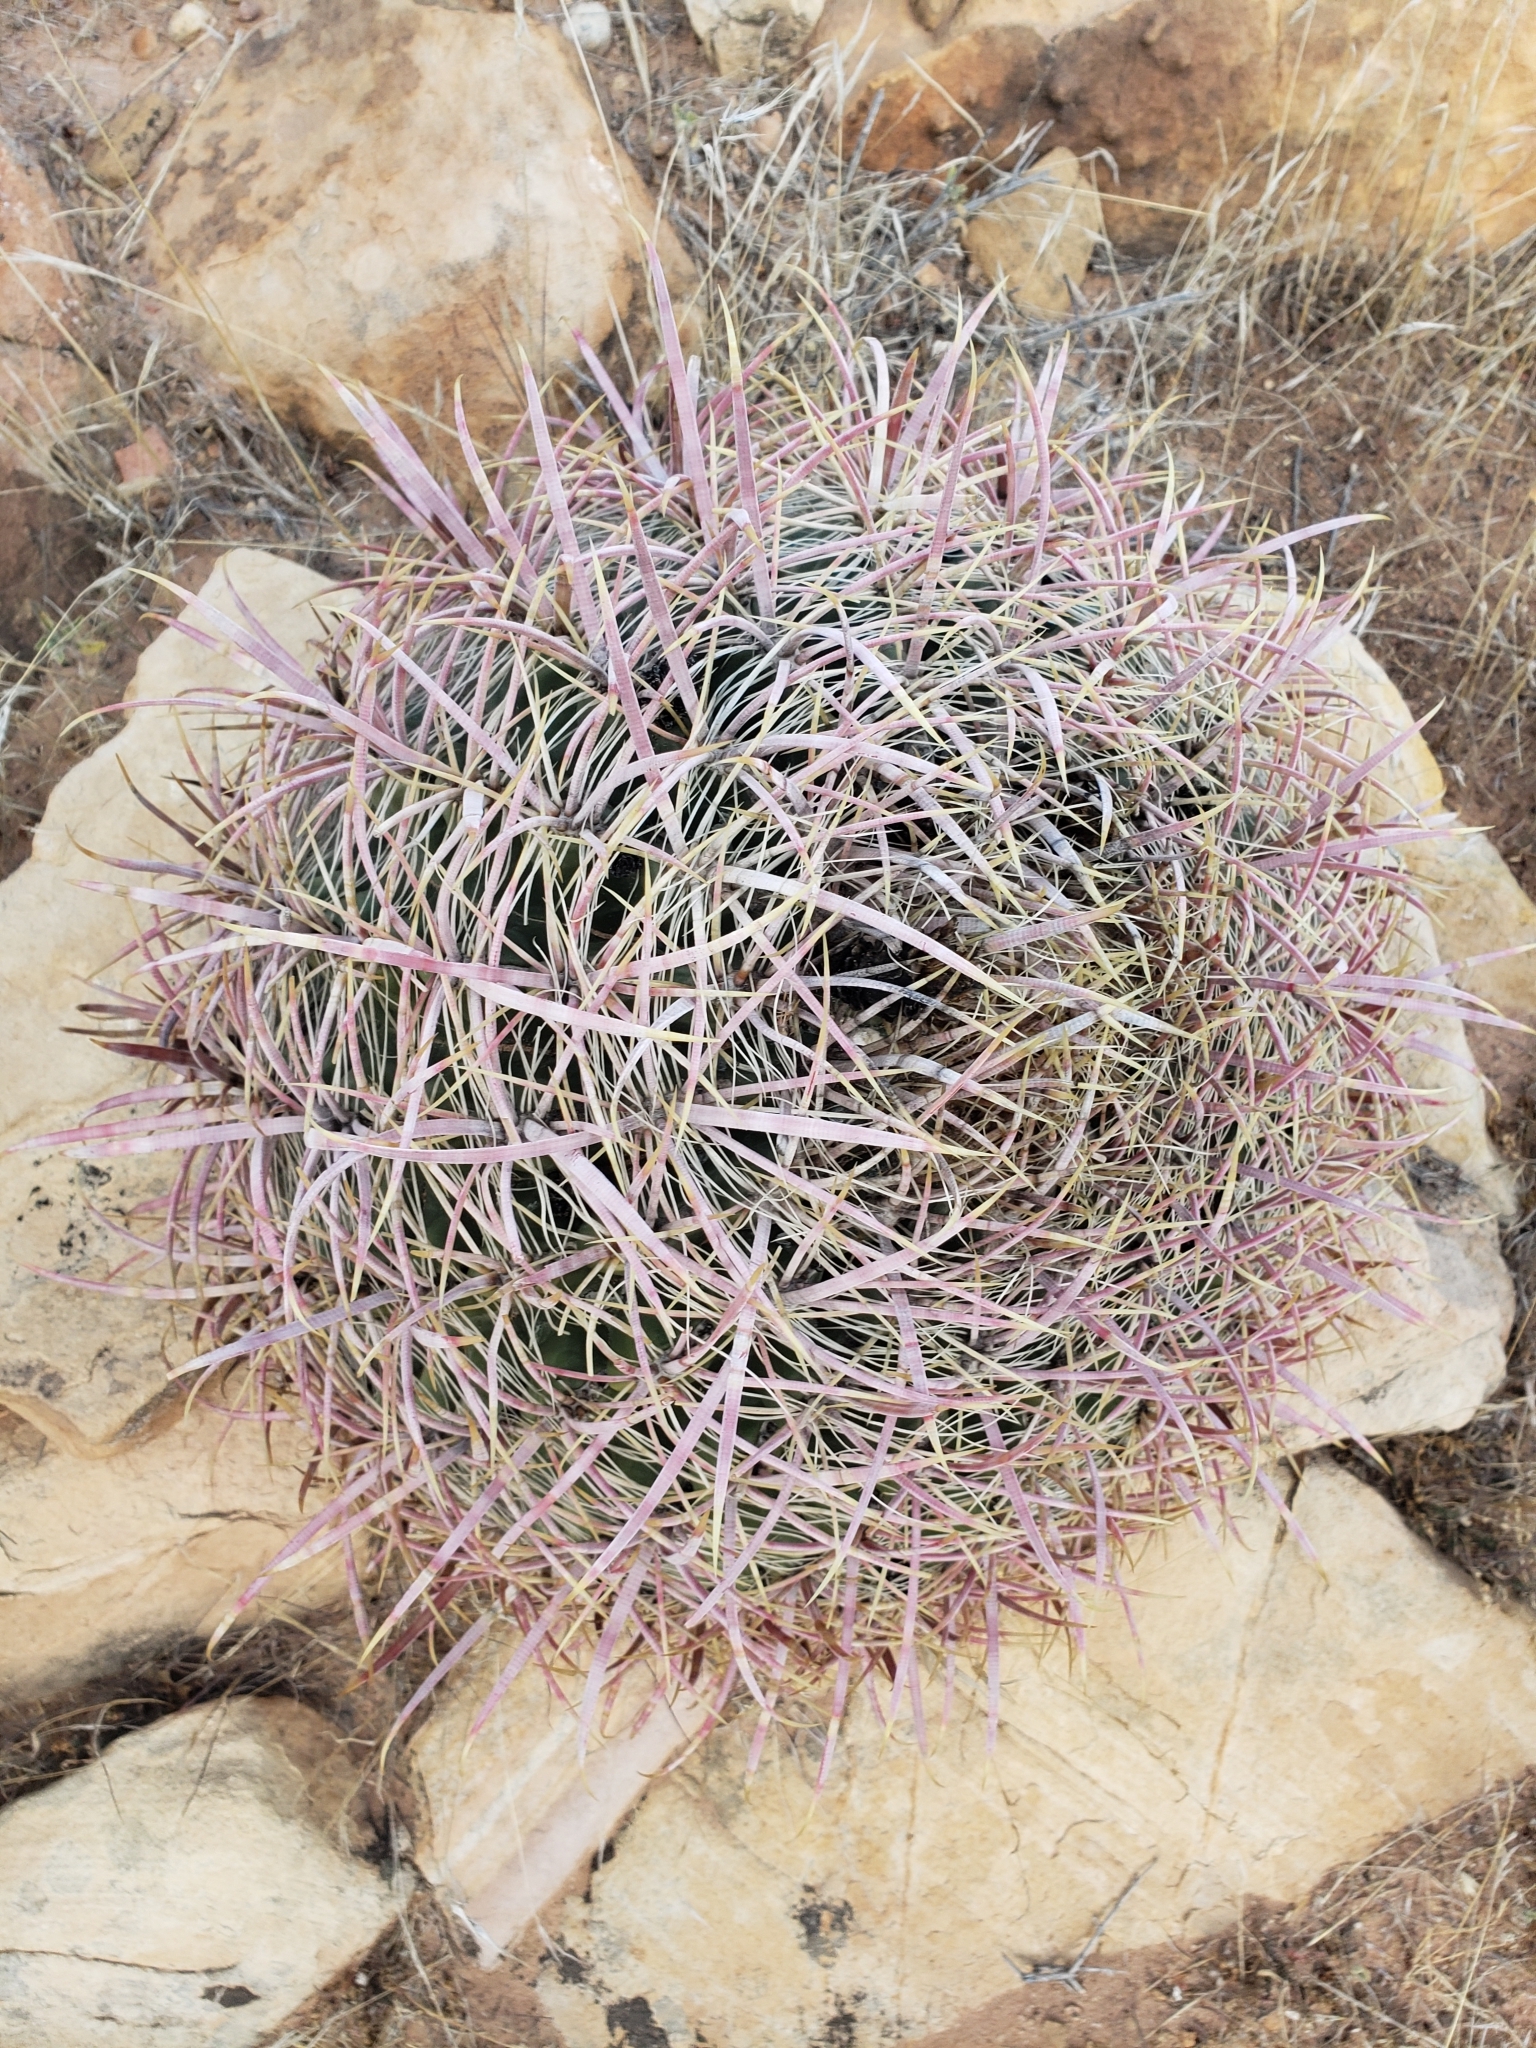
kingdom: Plantae
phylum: Tracheophyta
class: Magnoliopsida
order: Caryophyllales
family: Cactaceae
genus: Ferocactus
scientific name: Ferocactus cylindraceus
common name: California barrel cactus
